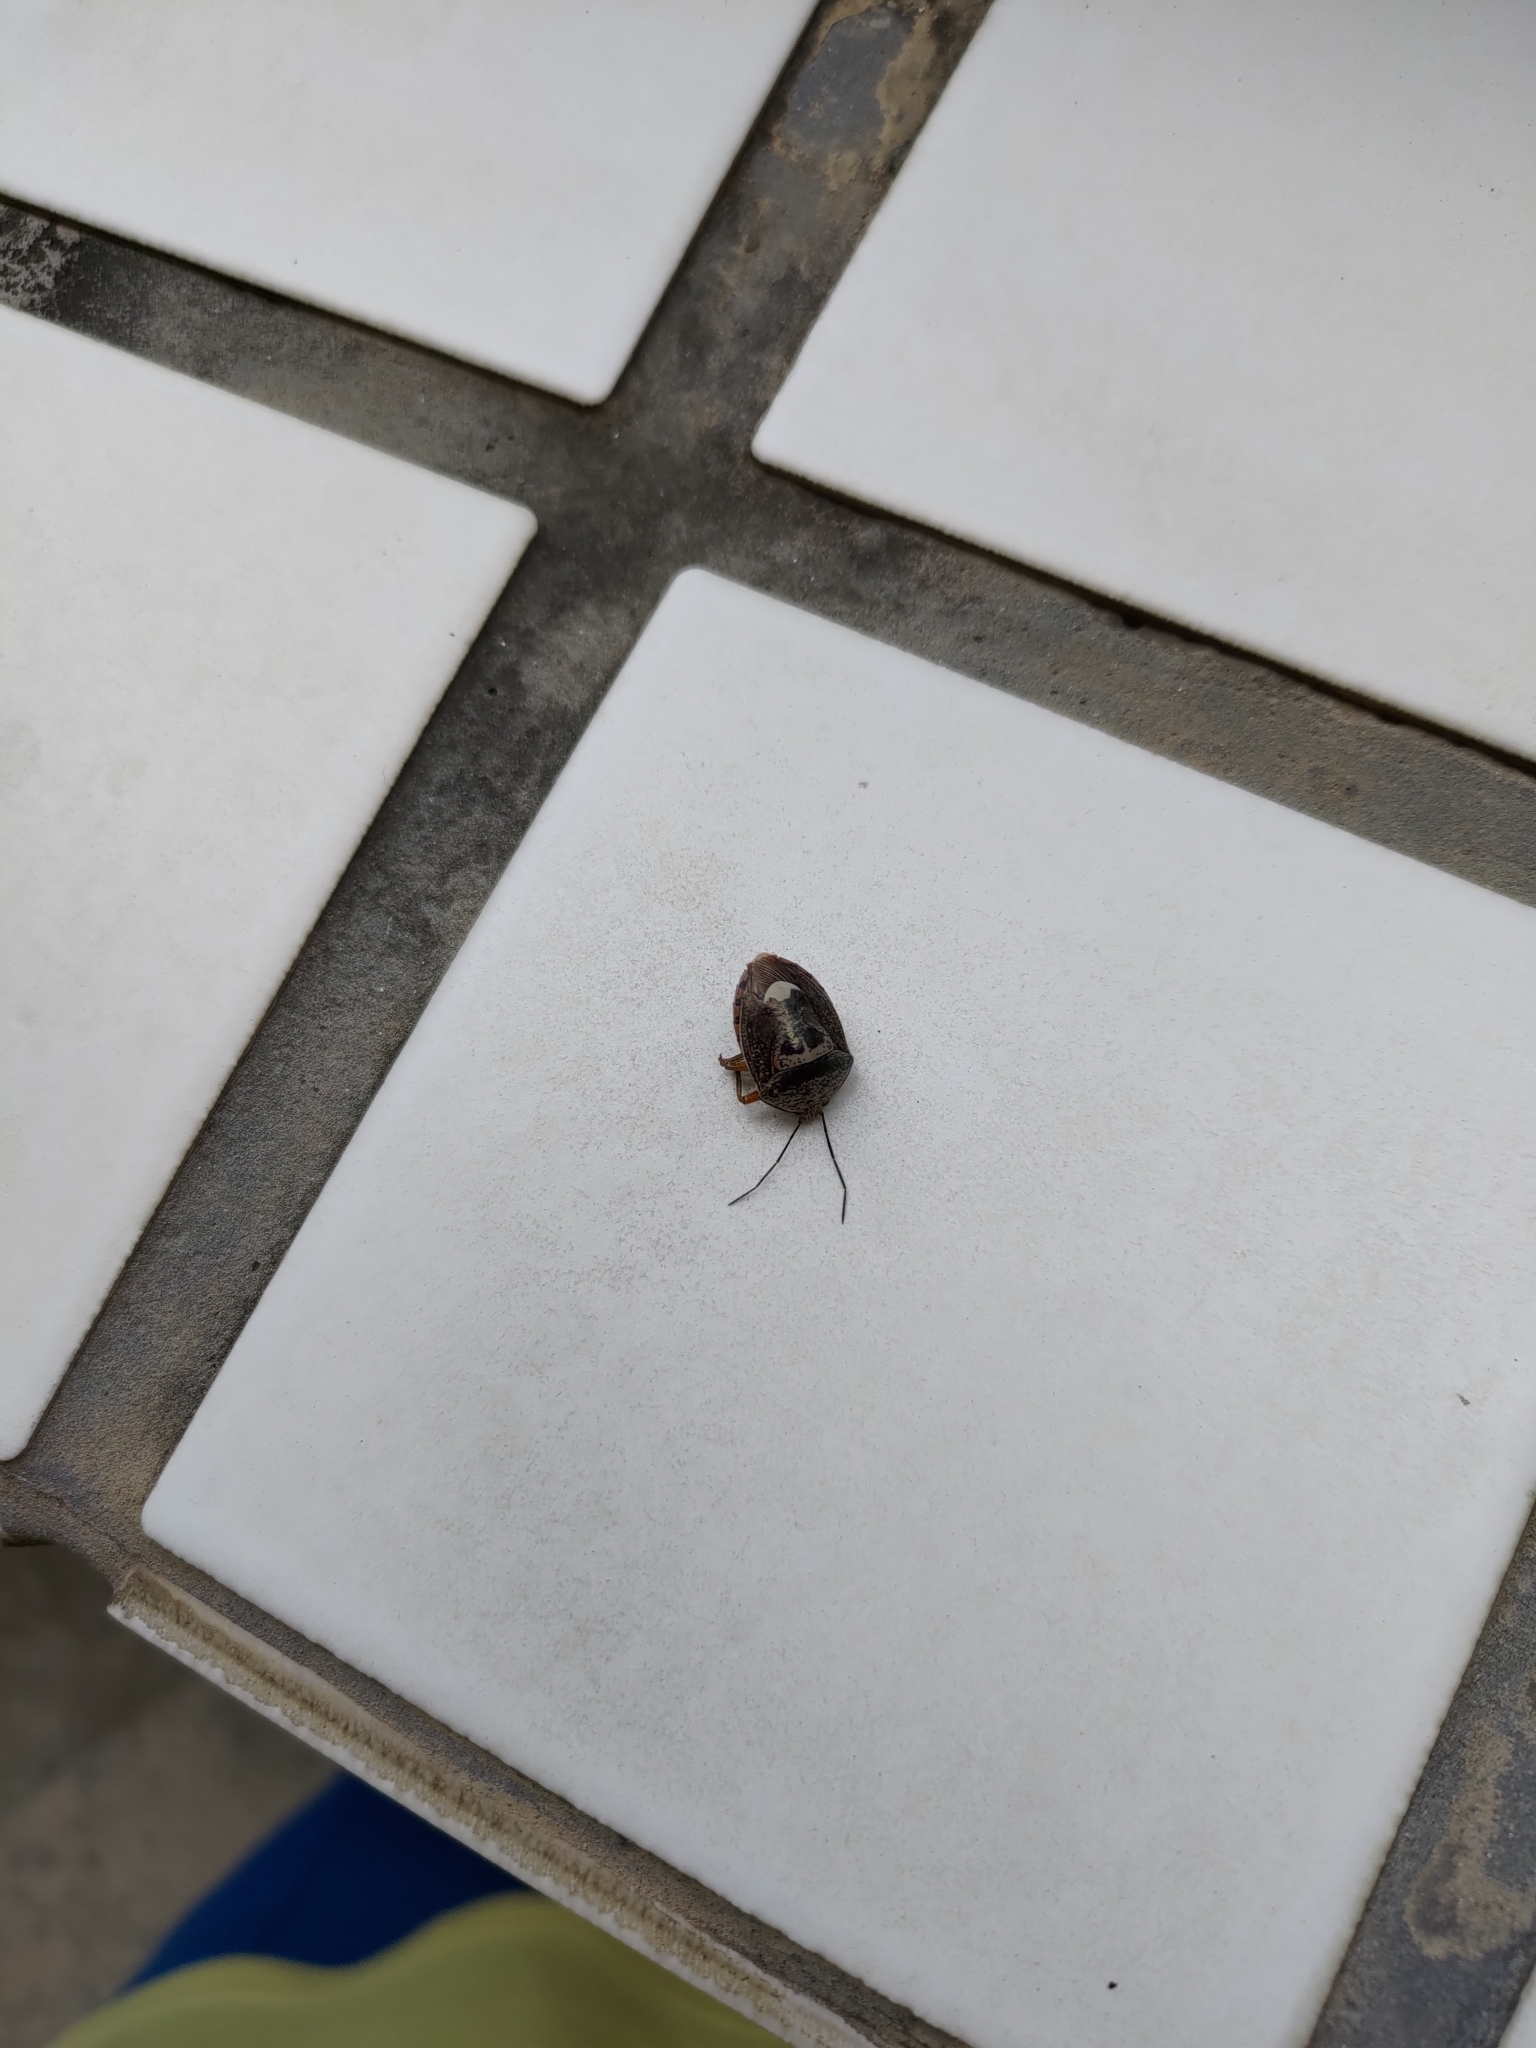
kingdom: Animalia
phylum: Arthropoda
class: Insecta
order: Hemiptera
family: Pentatomidae
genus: Axiagastus
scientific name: Axiagastus rosmarus
